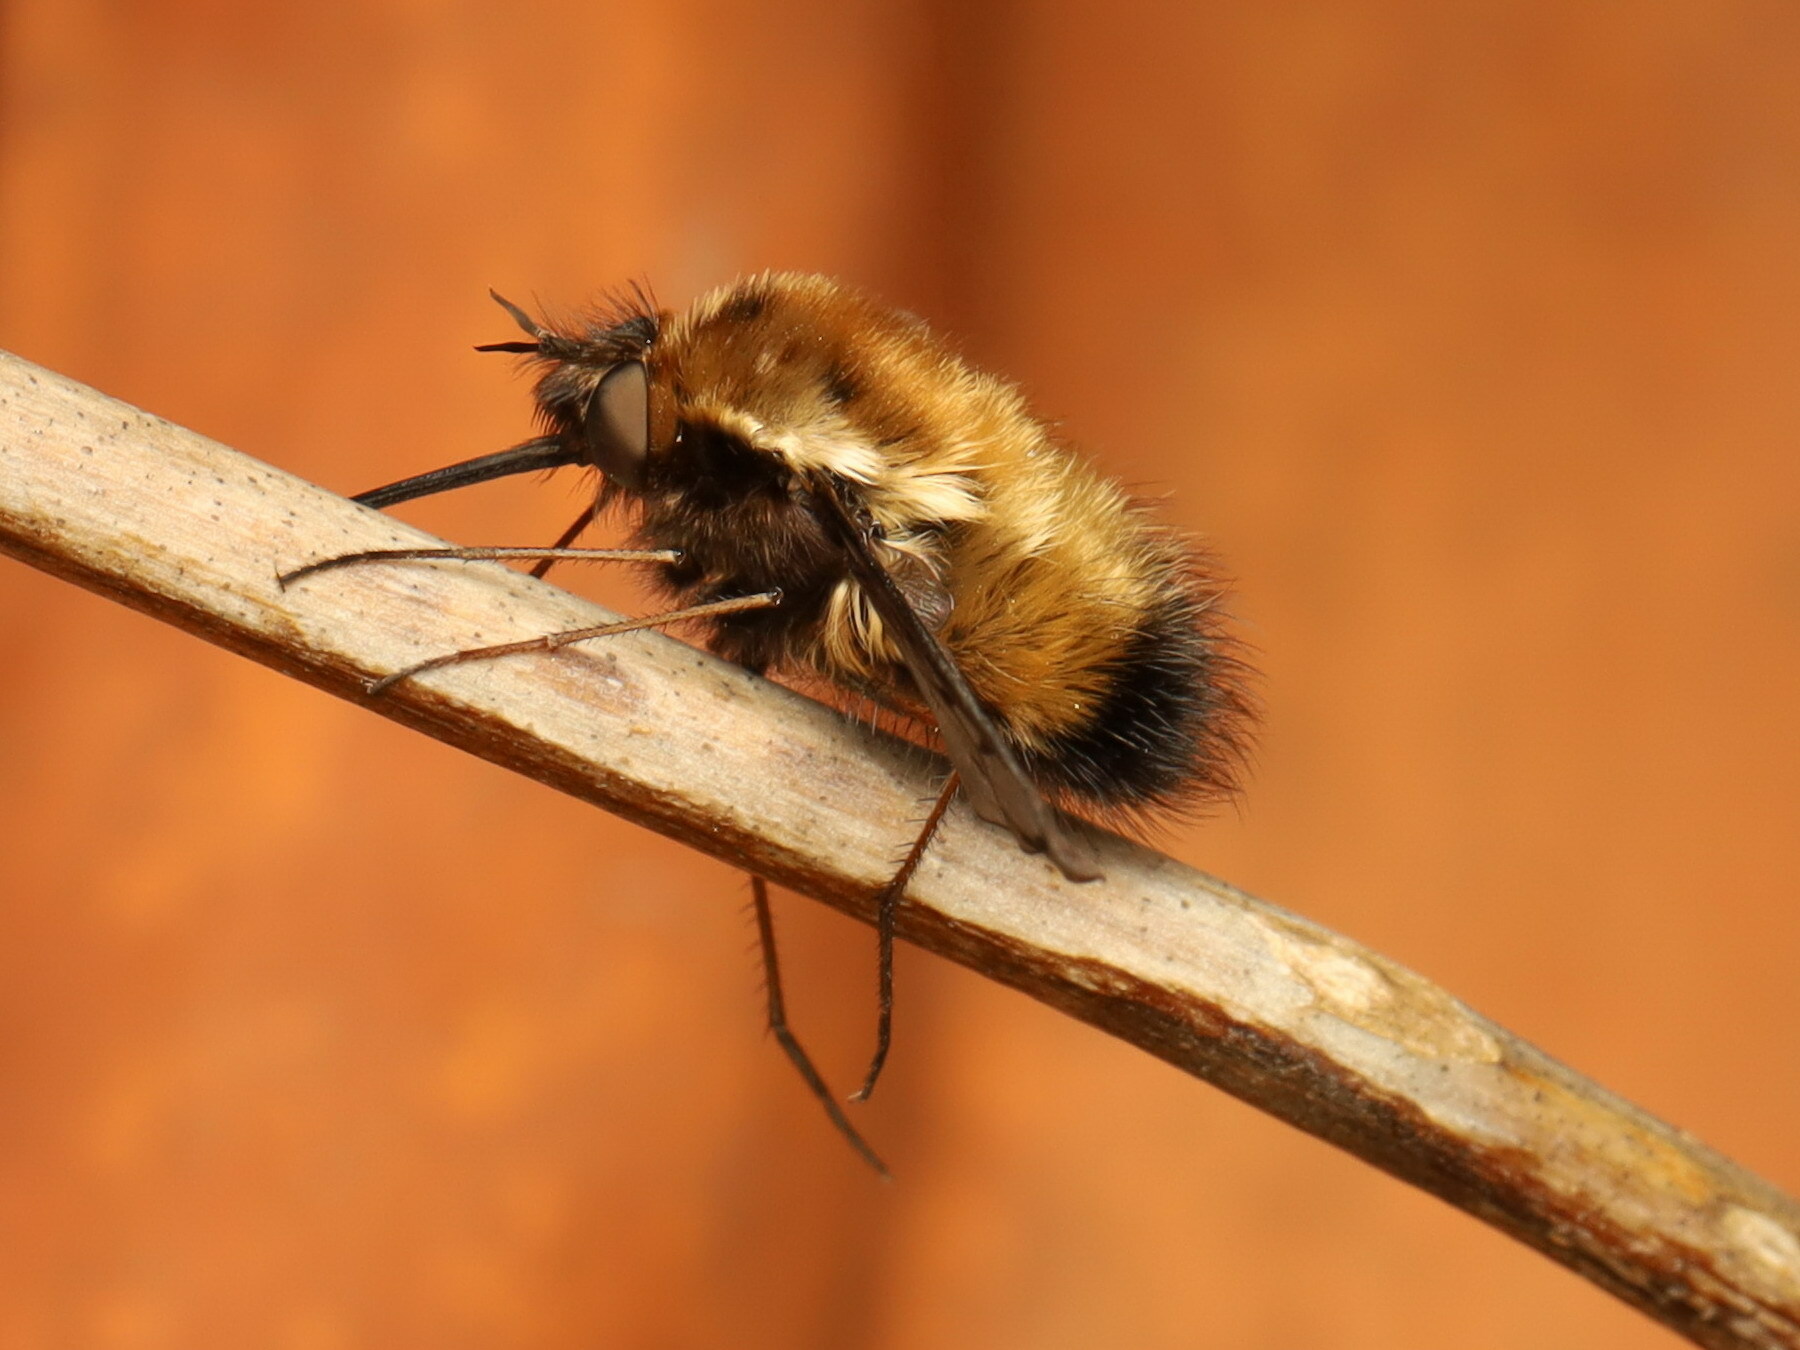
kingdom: Animalia
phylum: Arthropoda
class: Insecta
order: Diptera
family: Bombyliidae
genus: Bombylius
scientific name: Bombylius discolor
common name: Dotted bee-fly
